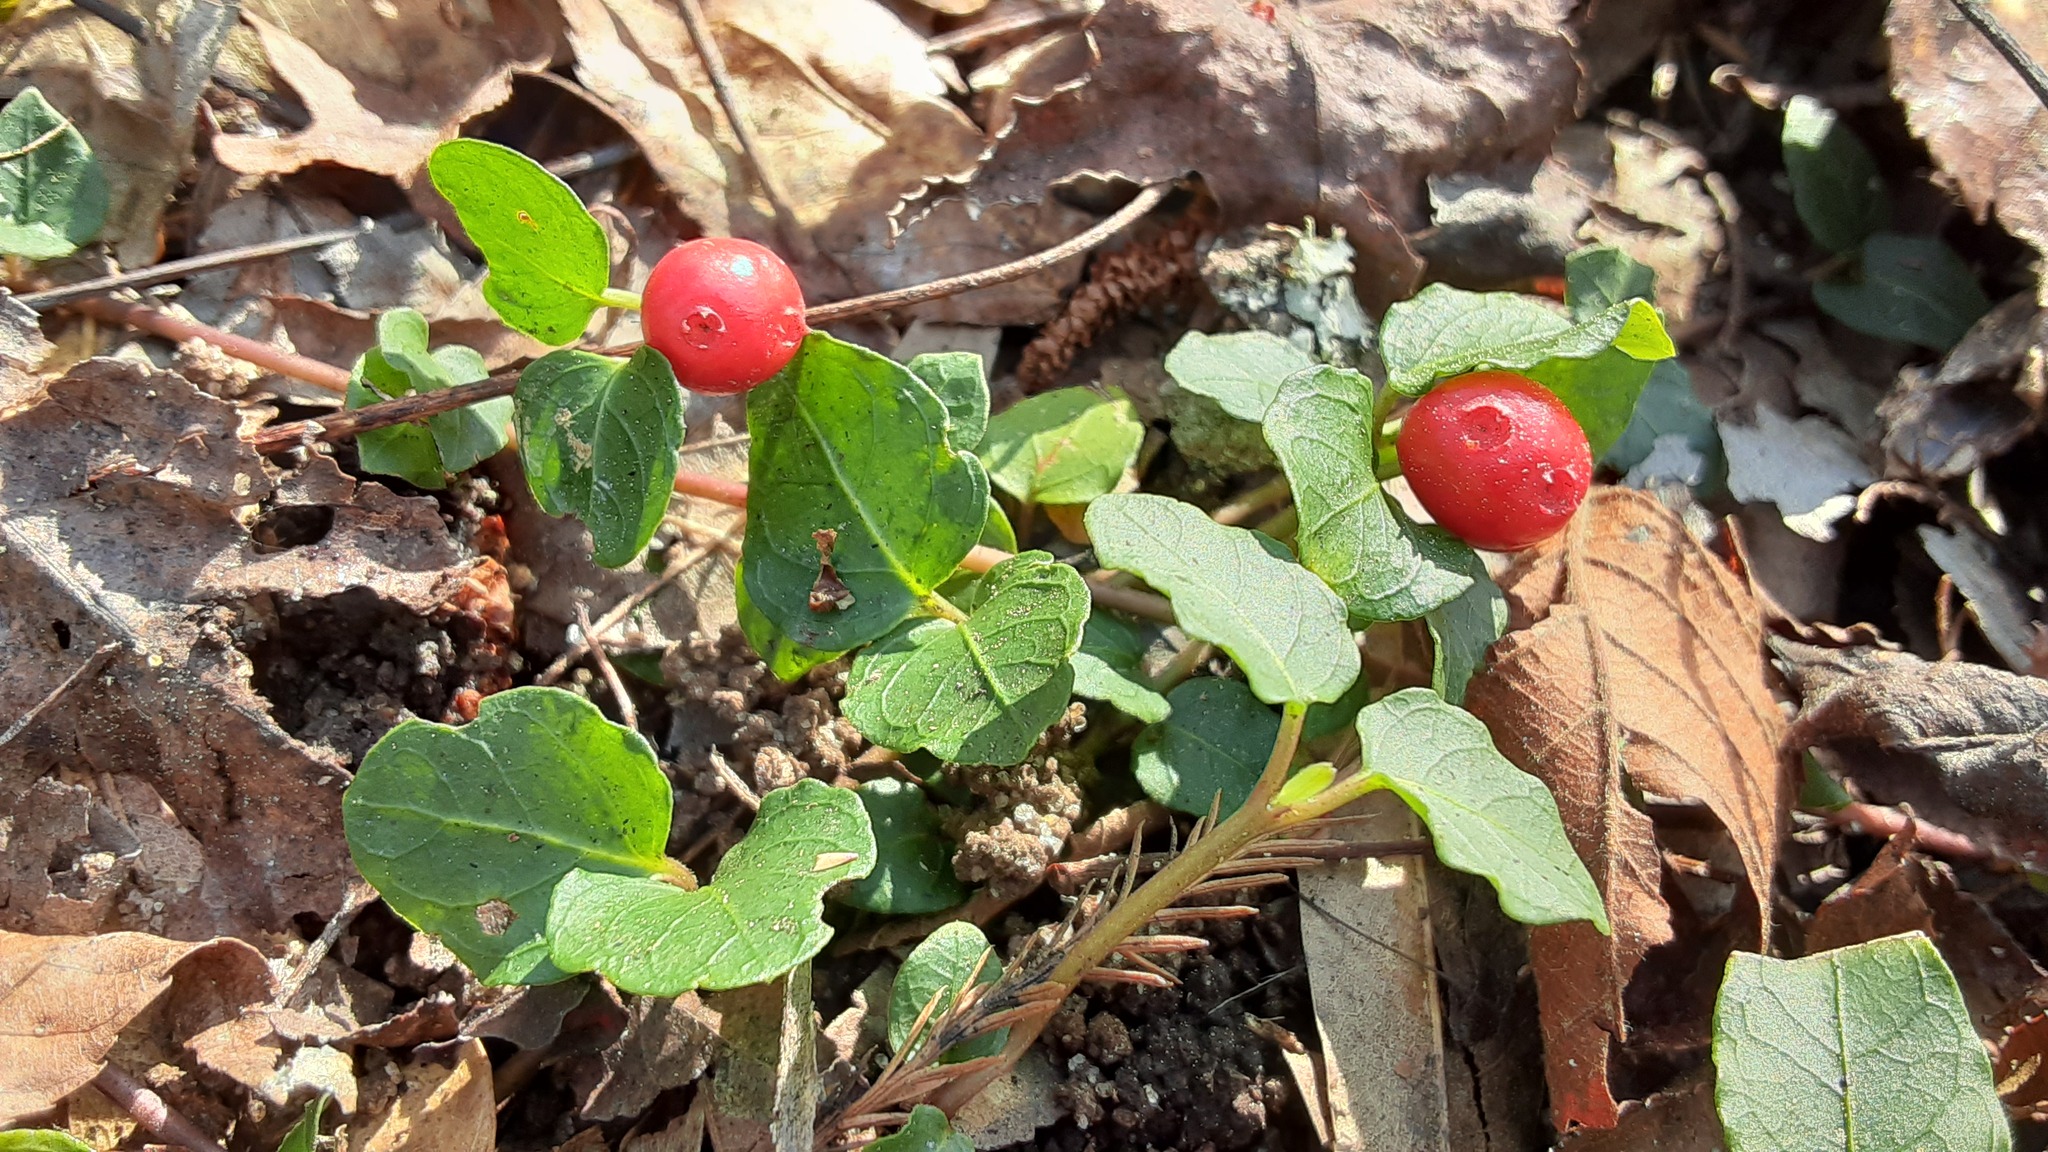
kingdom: Plantae
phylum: Tracheophyta
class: Magnoliopsida
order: Gentianales
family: Rubiaceae
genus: Mitchella
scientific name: Mitchella repens
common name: Partridge-berry
